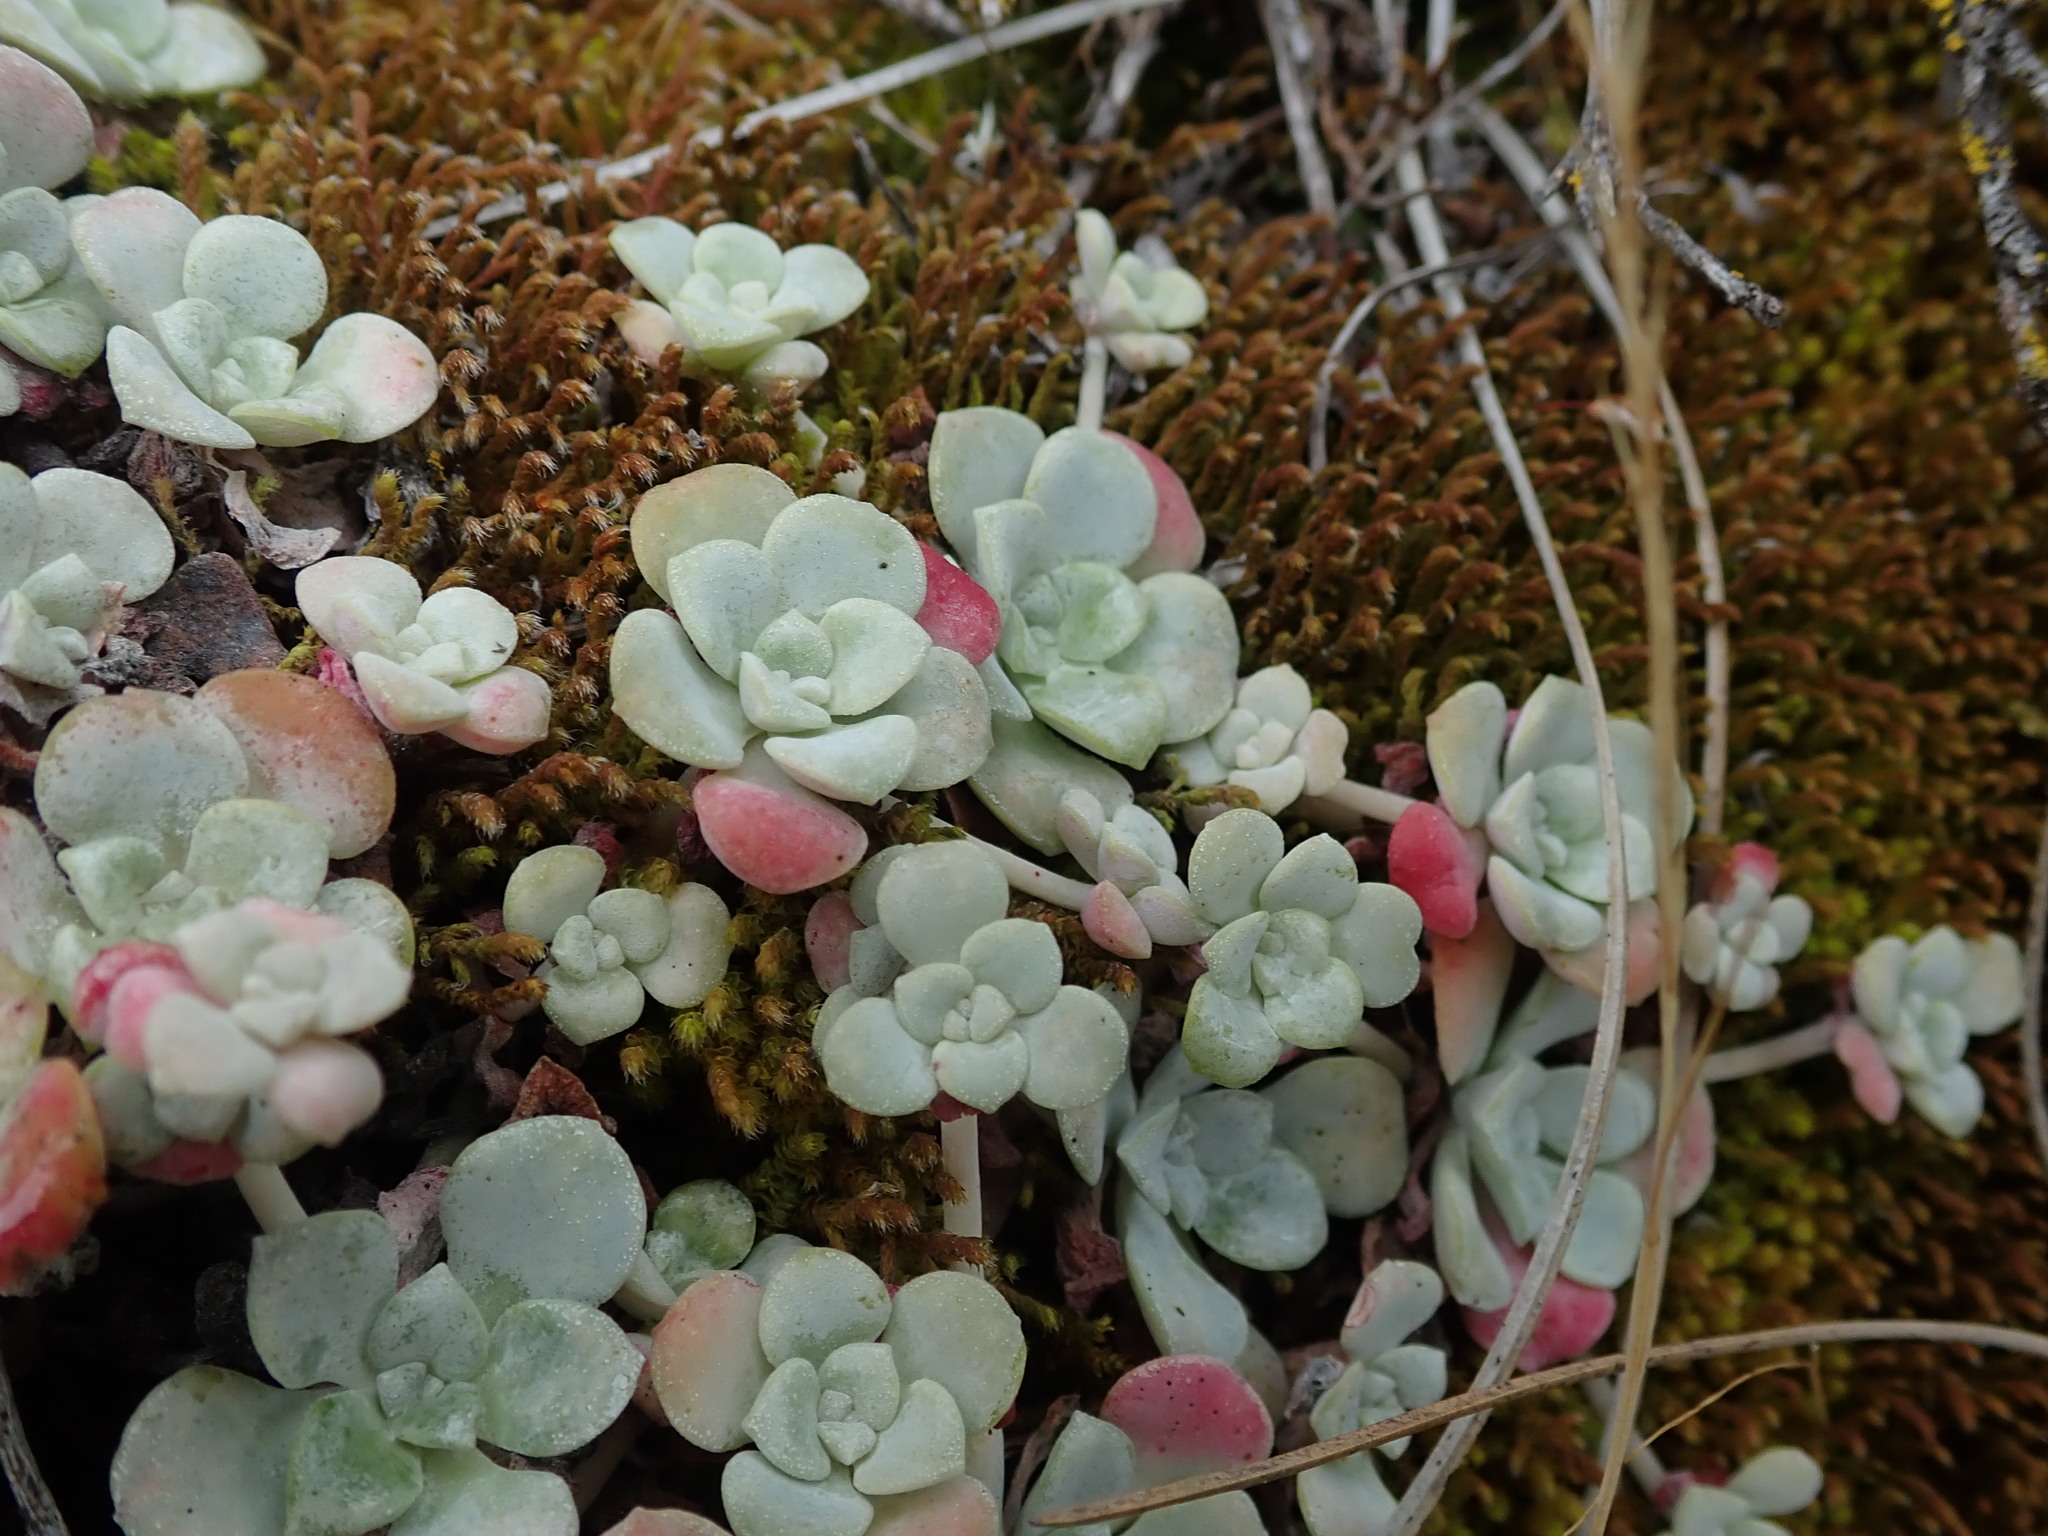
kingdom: Plantae
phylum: Tracheophyta
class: Magnoliopsida
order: Saxifragales
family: Crassulaceae
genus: Sedum
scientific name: Sedum spathulifolium
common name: Colorado stonecrop
